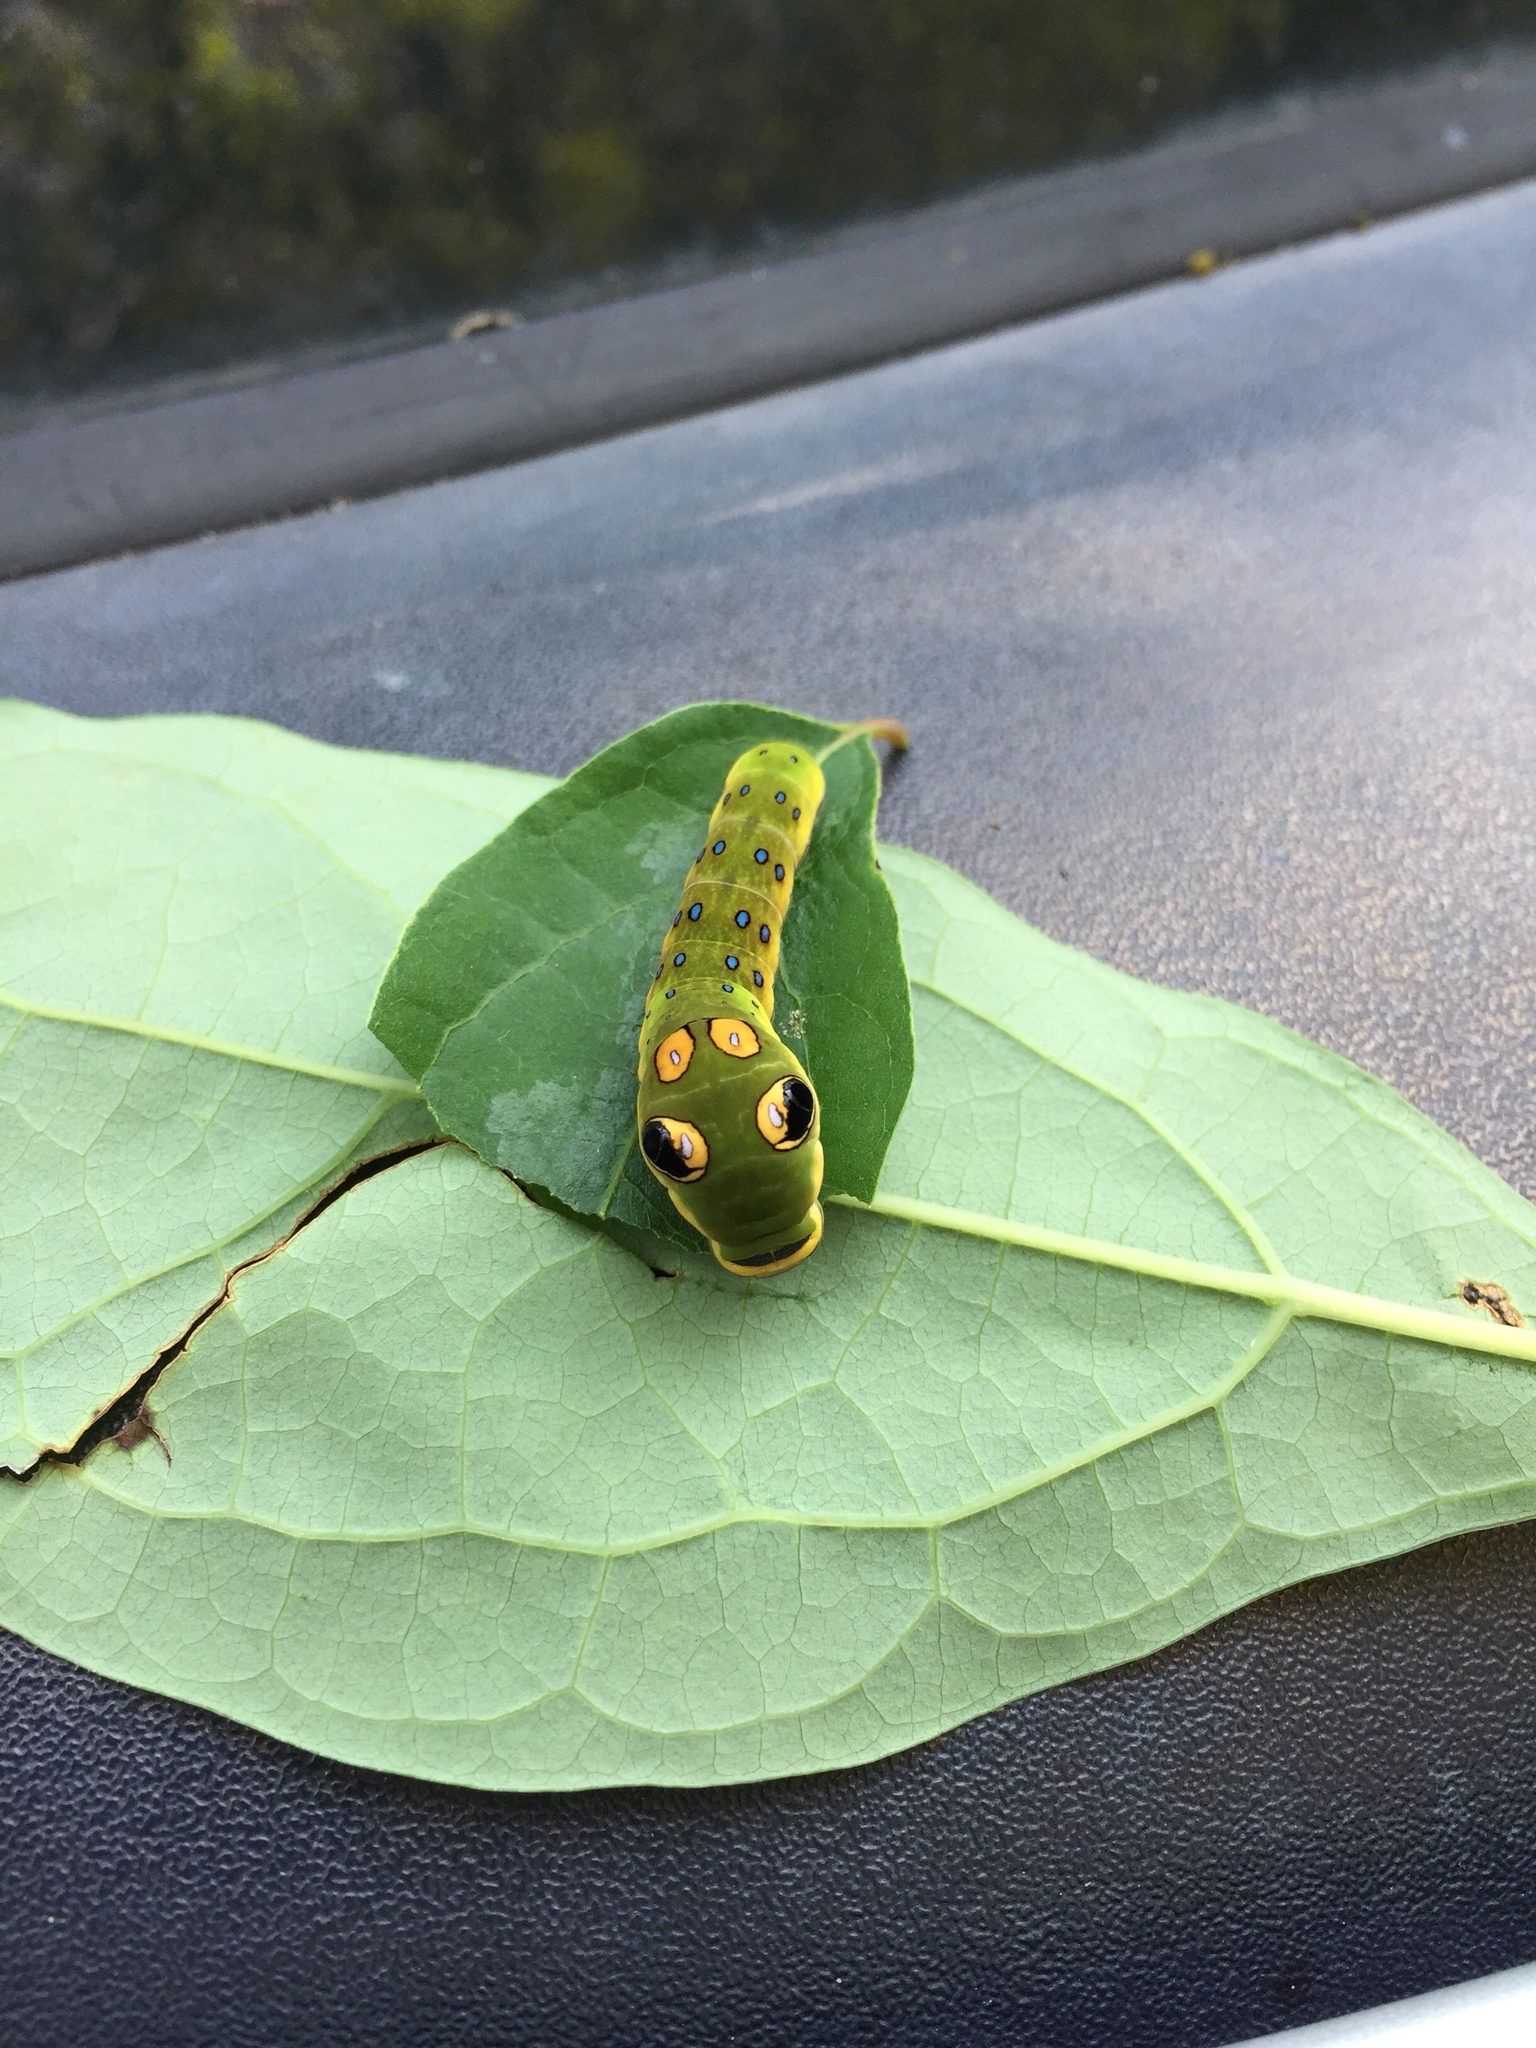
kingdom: Animalia
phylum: Arthropoda
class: Insecta
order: Lepidoptera
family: Papilionidae
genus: Papilio
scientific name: Papilio troilus
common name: Spicebush swallowtail
